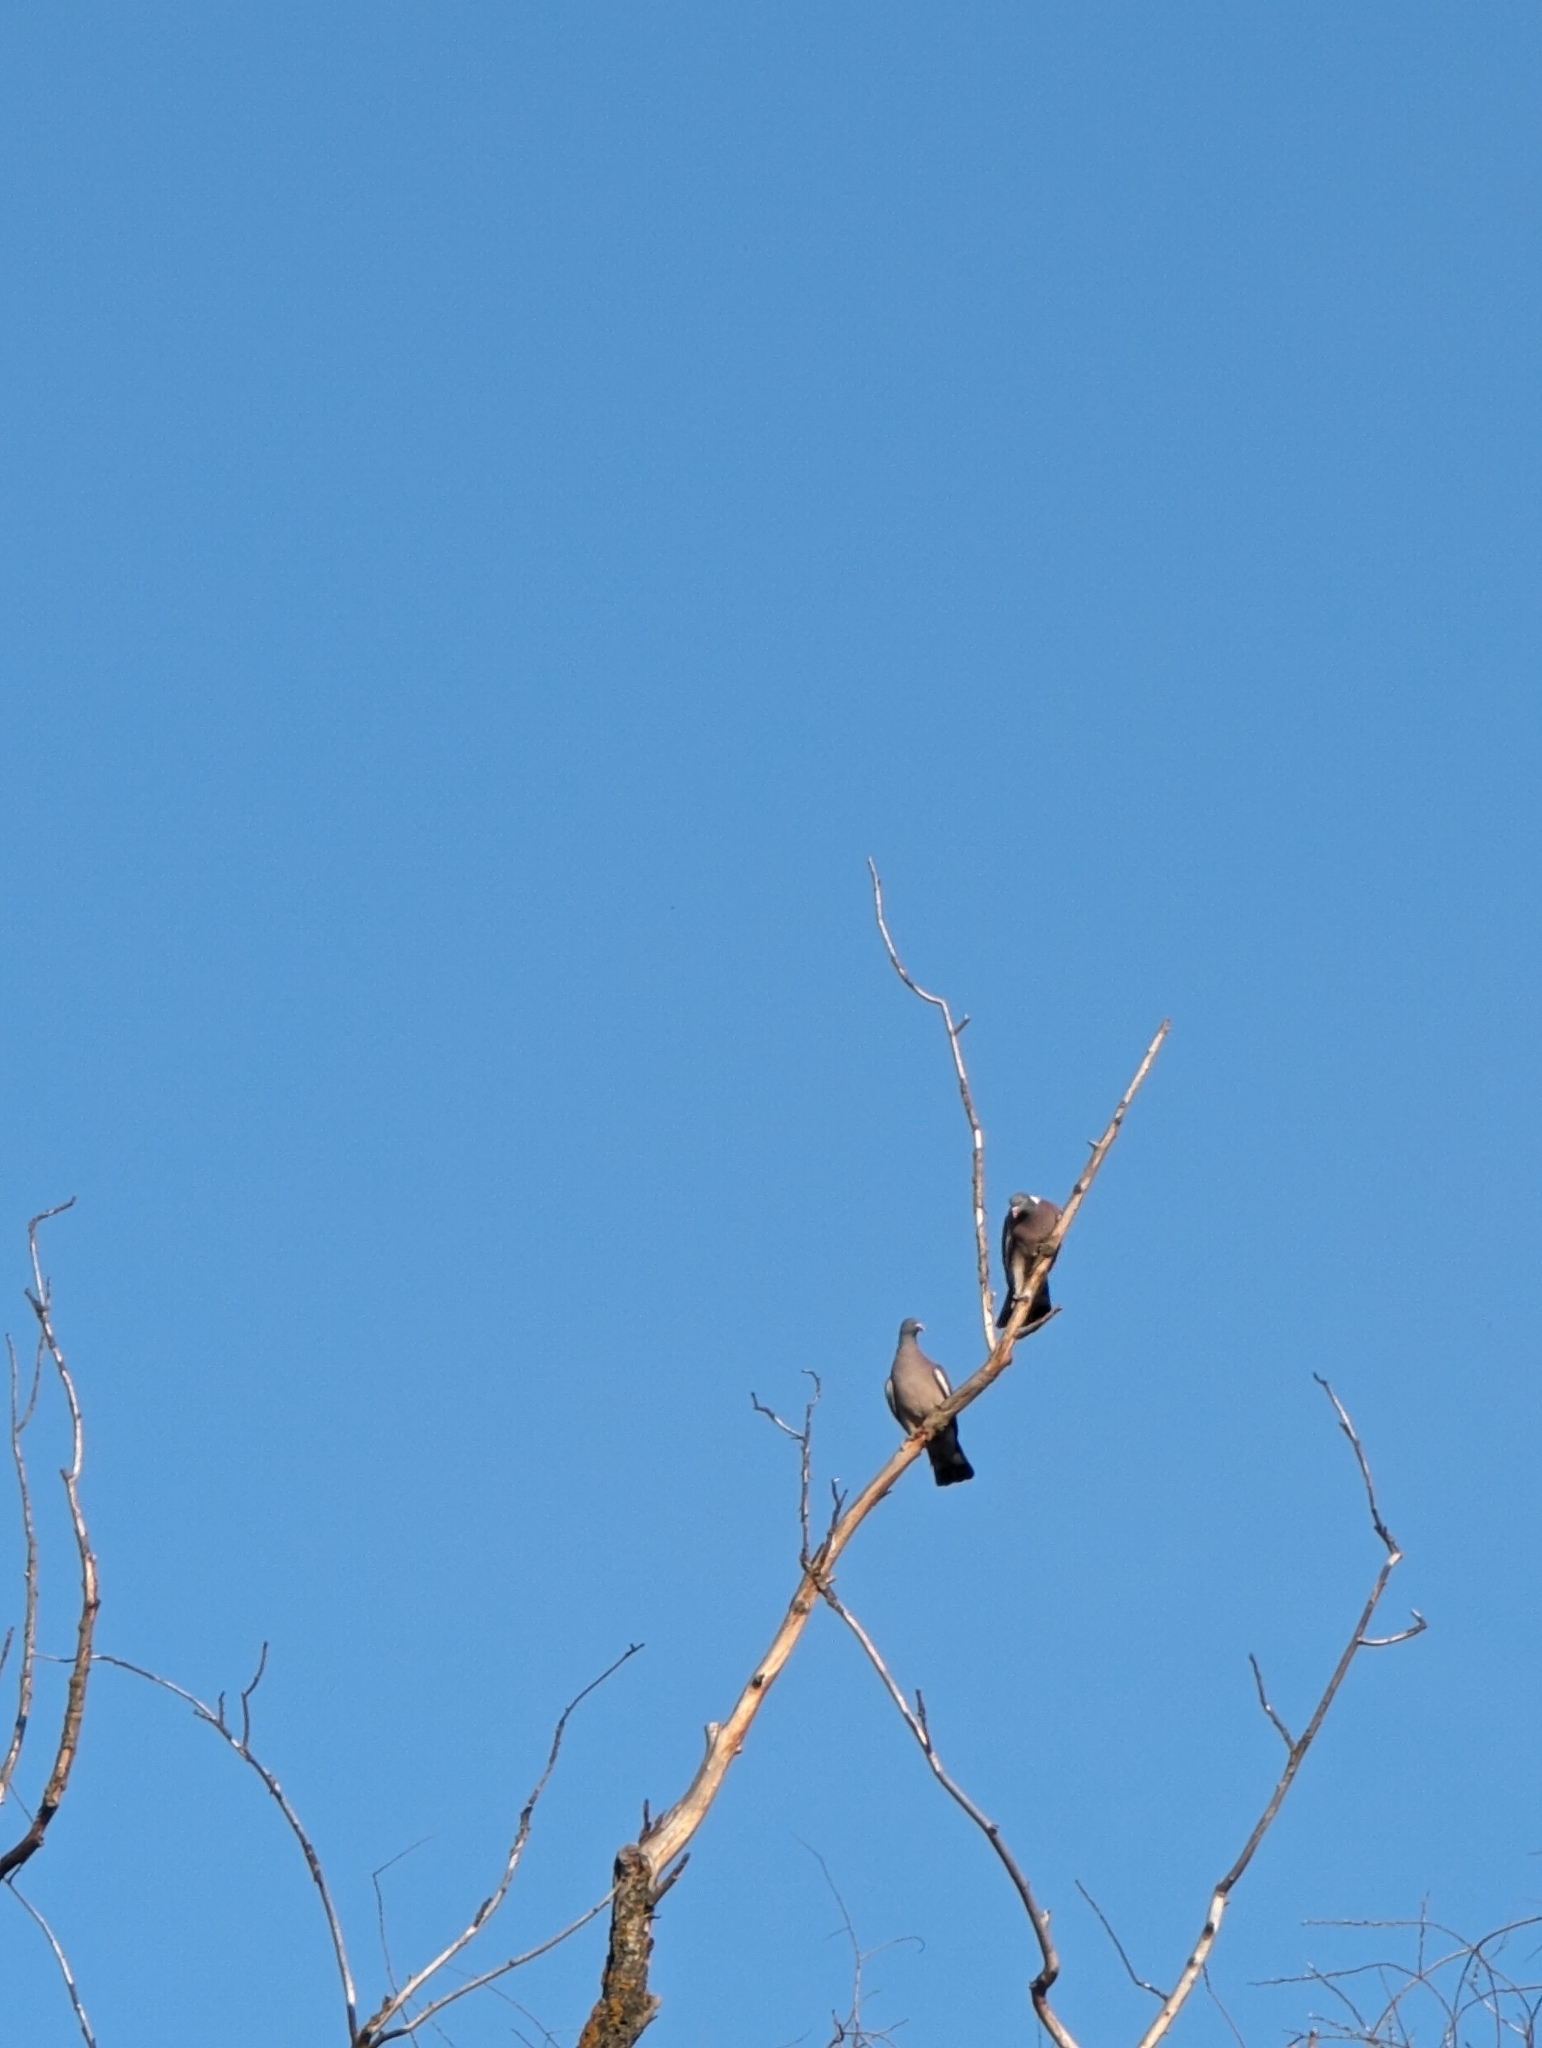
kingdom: Animalia
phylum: Chordata
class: Aves
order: Columbiformes
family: Columbidae
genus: Columba
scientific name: Columba palumbus
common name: Common wood pigeon
